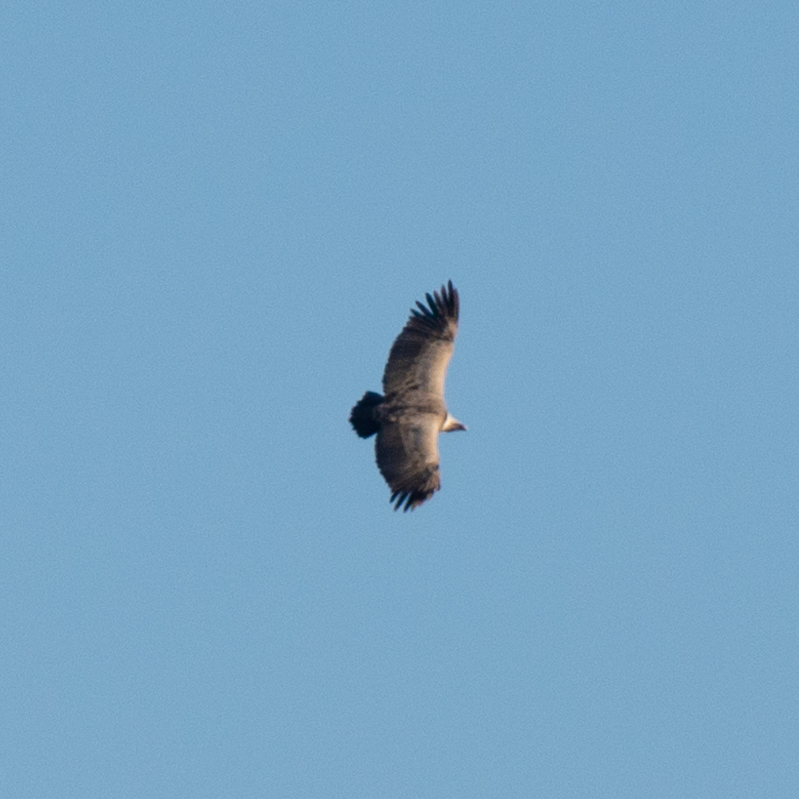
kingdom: Animalia
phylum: Chordata
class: Aves
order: Accipitriformes
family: Accipitridae
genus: Gyps
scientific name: Gyps fulvus
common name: Griffon vulture
